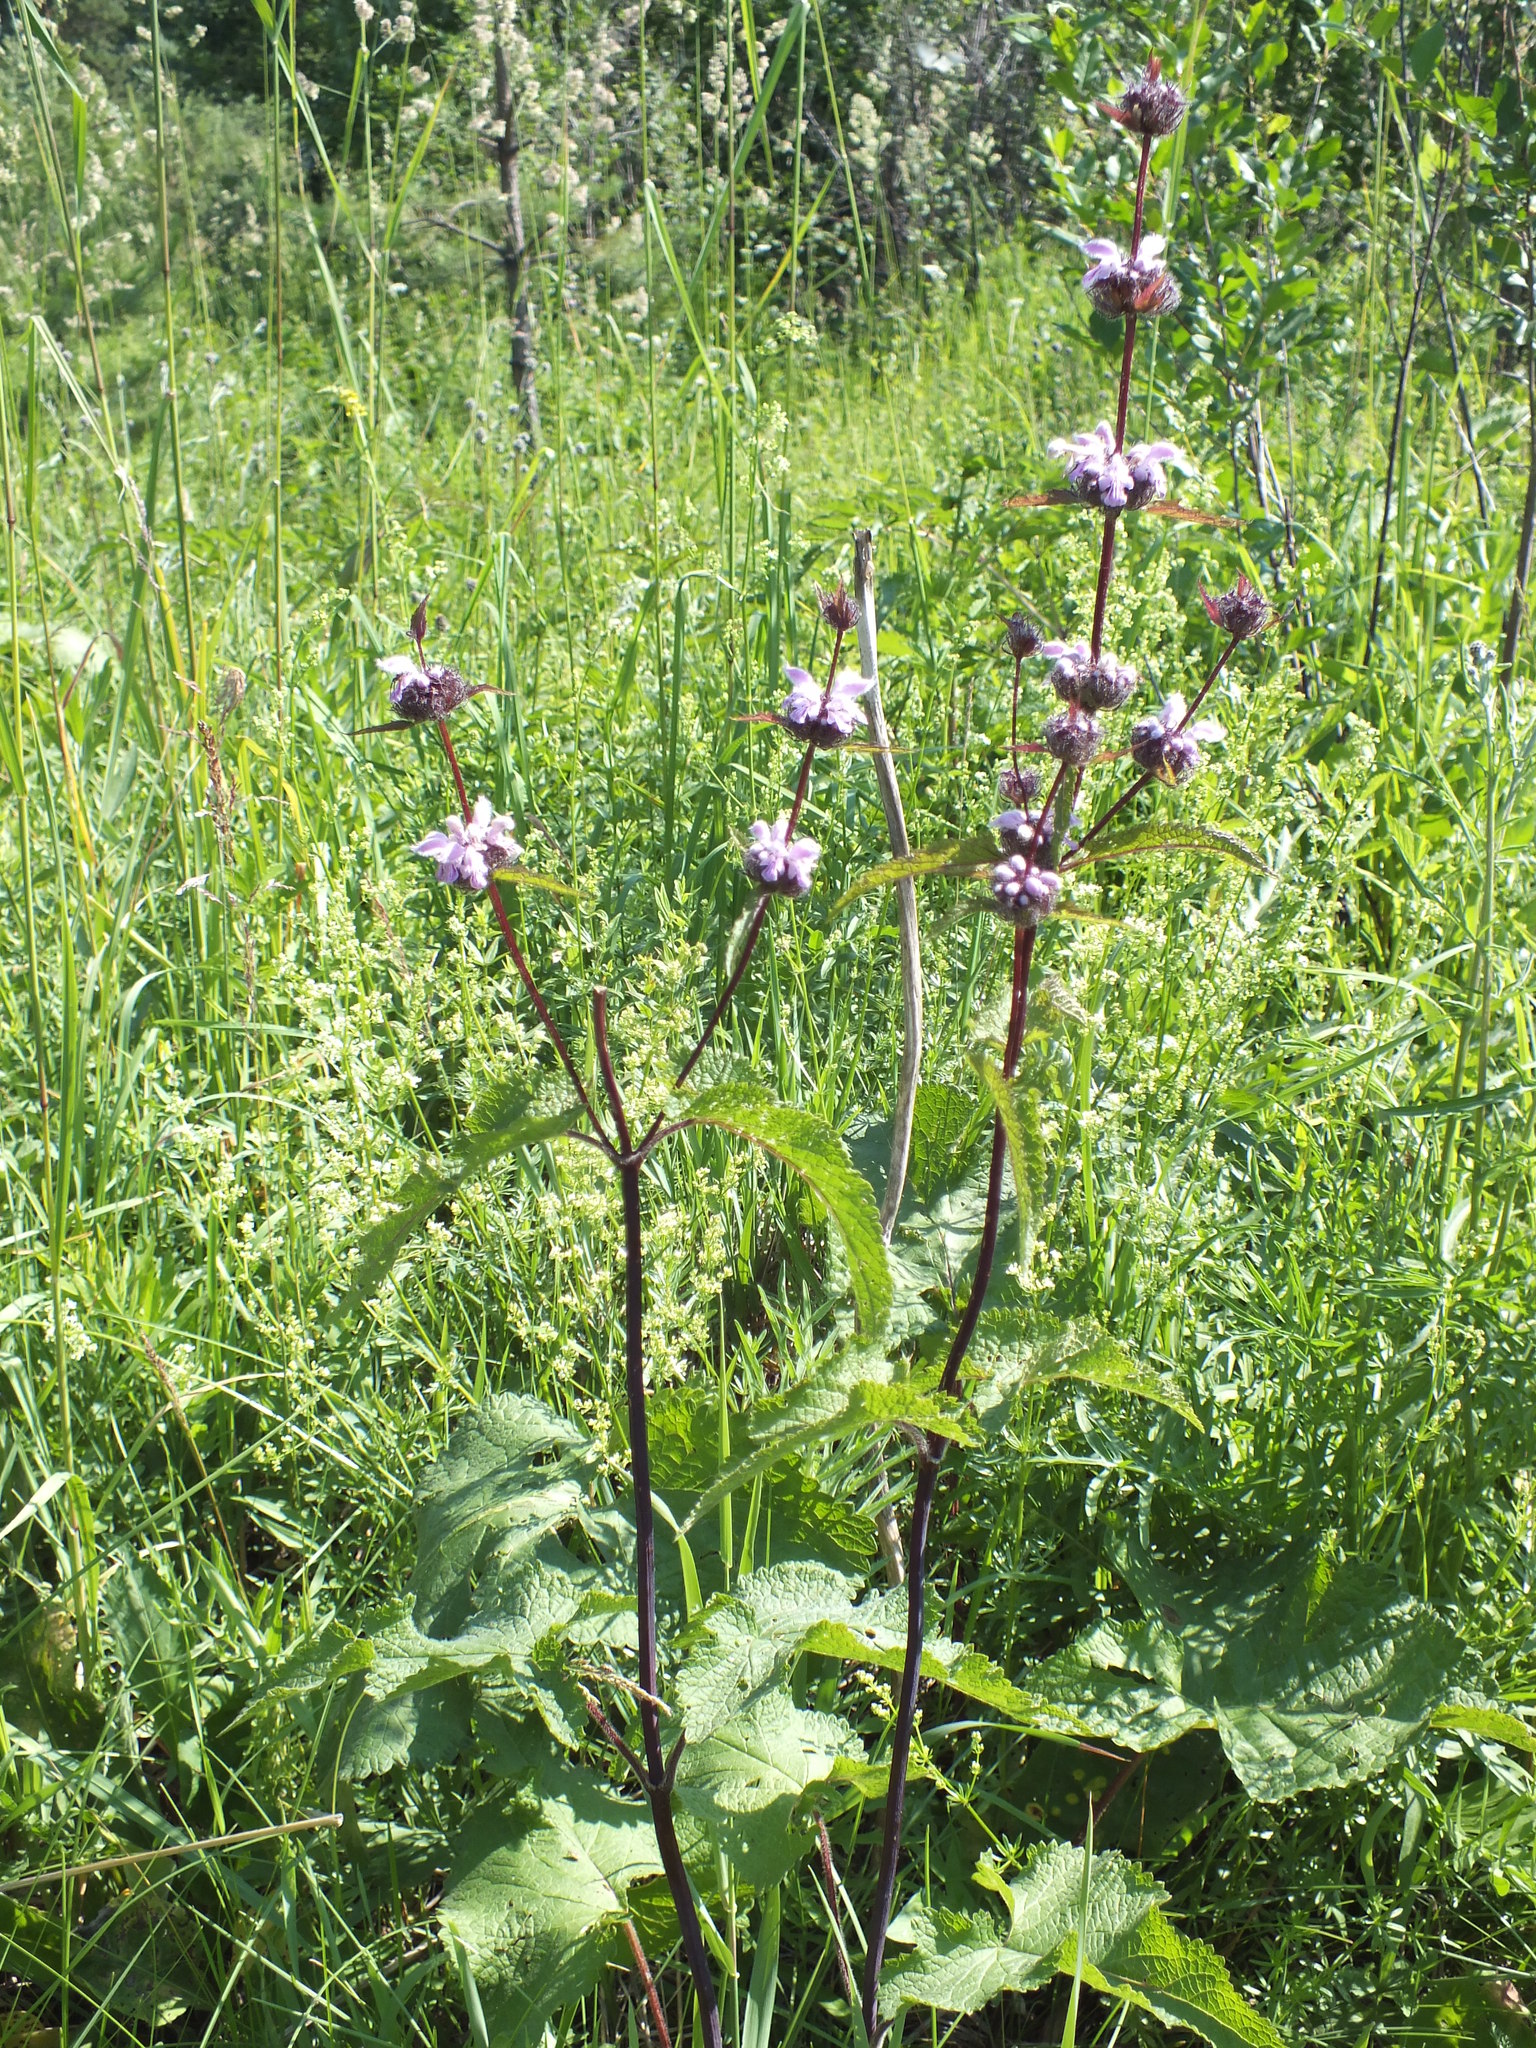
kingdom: Plantae
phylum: Tracheophyta
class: Magnoliopsida
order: Lamiales
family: Lamiaceae
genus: Phlomoides
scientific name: Phlomoides tuberosa
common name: Tuberous jerusalem sage
